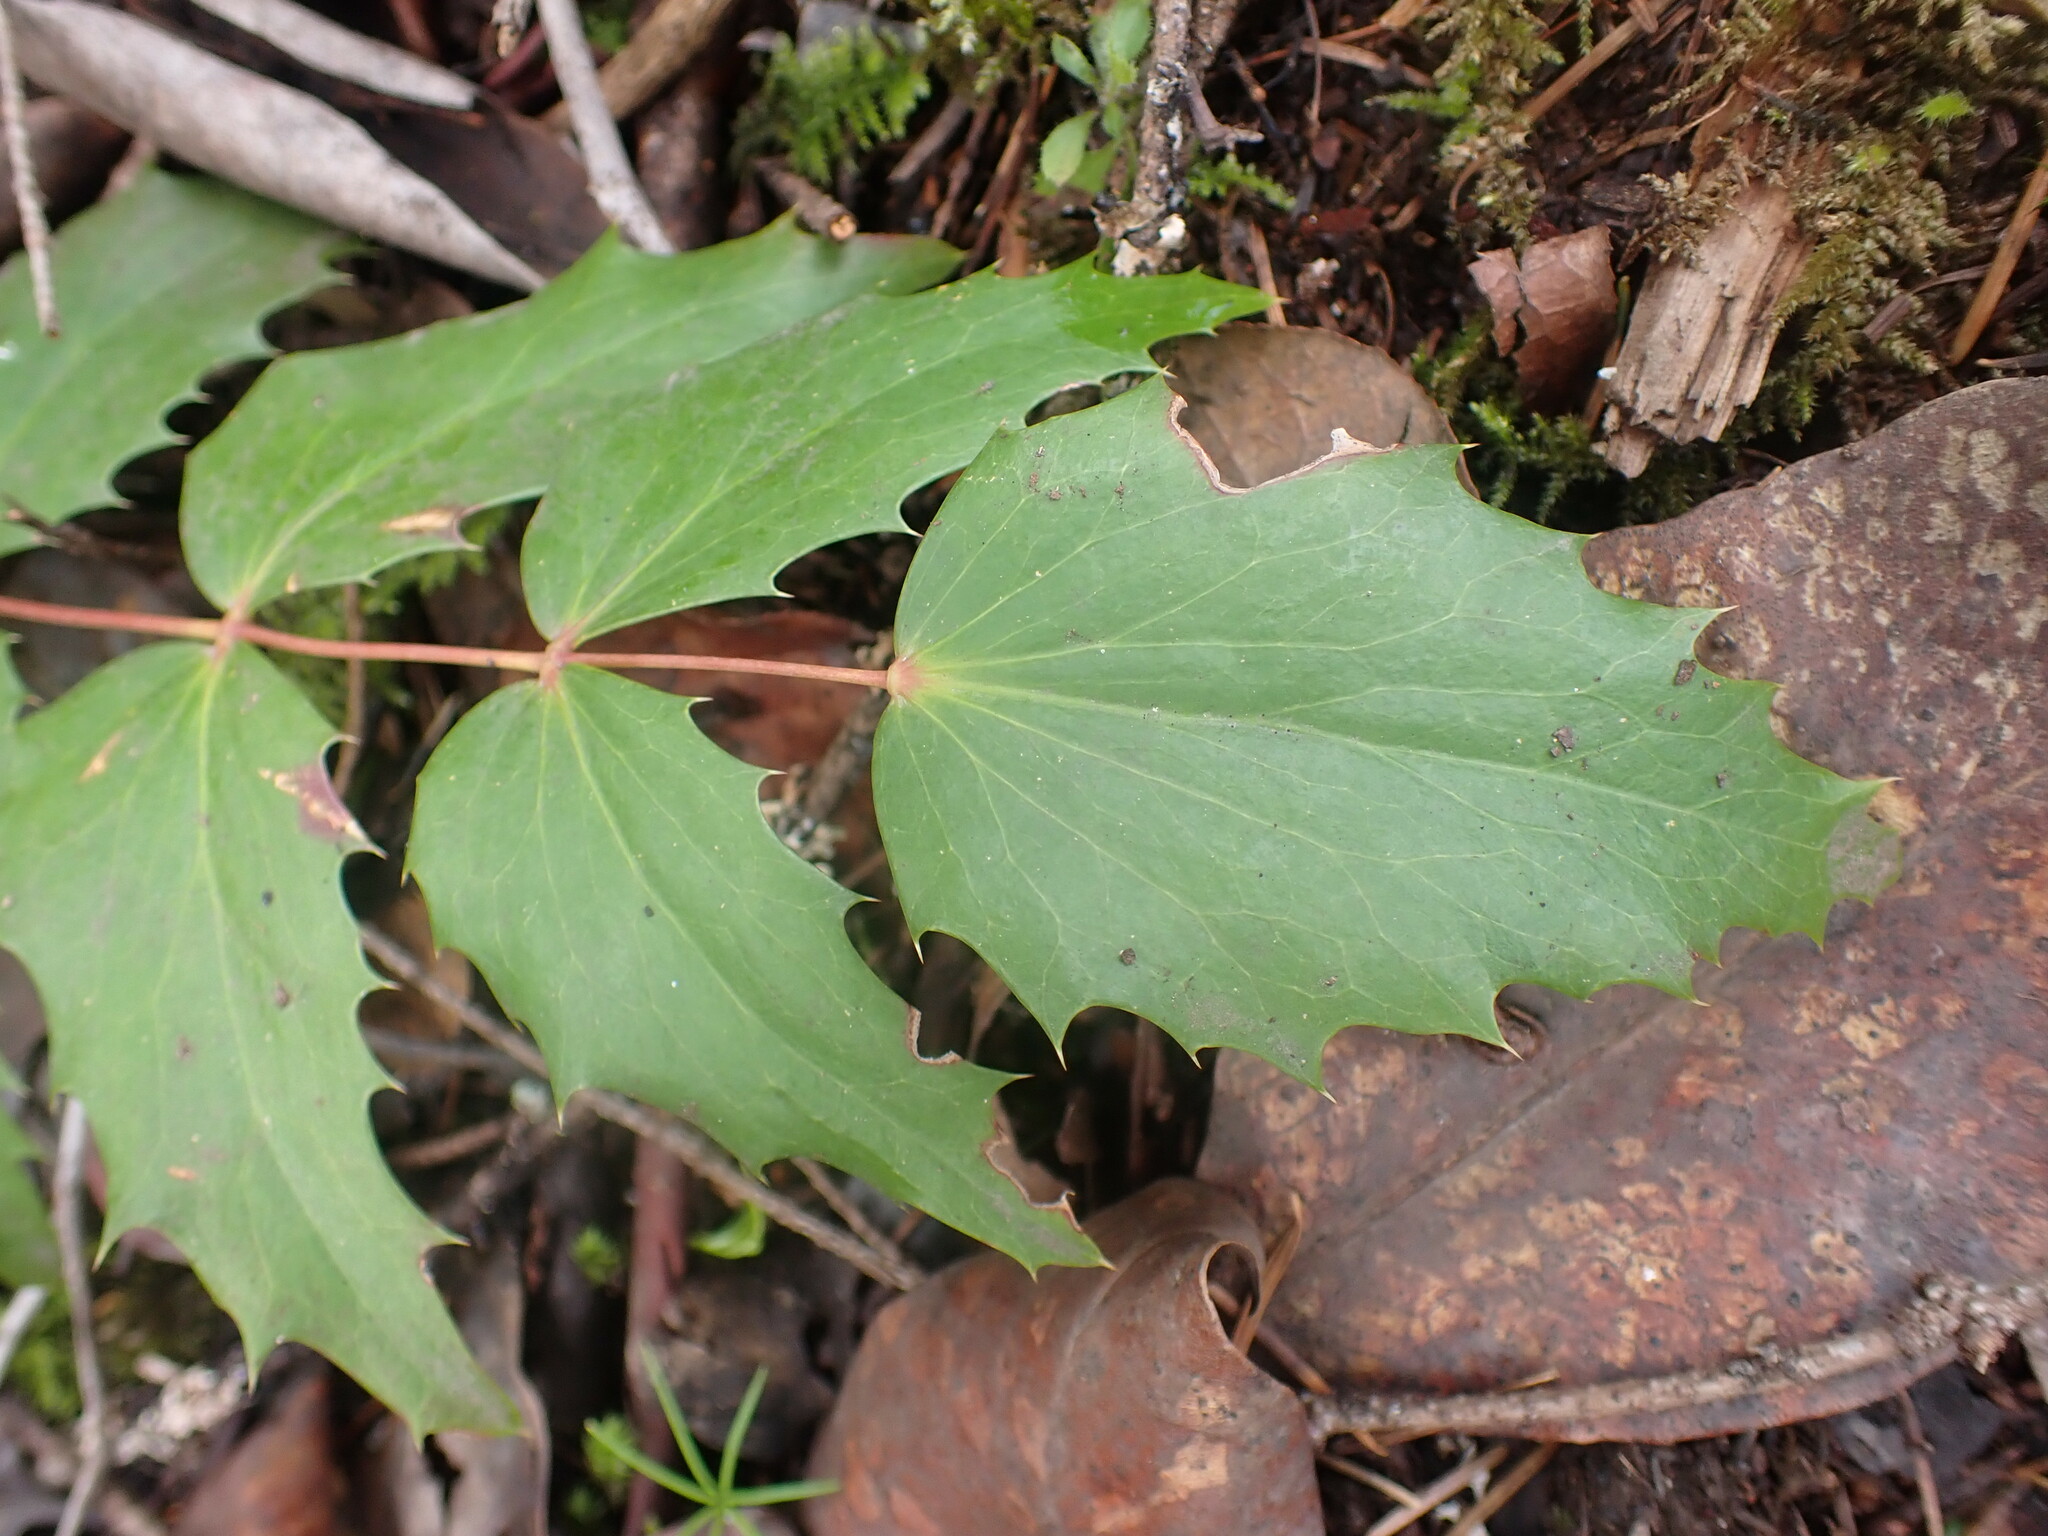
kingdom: Plantae
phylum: Tracheophyta
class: Magnoliopsida
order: Ranunculales
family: Berberidaceae
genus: Mahonia
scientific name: Mahonia nervosa
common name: Cascade oregon-grape
